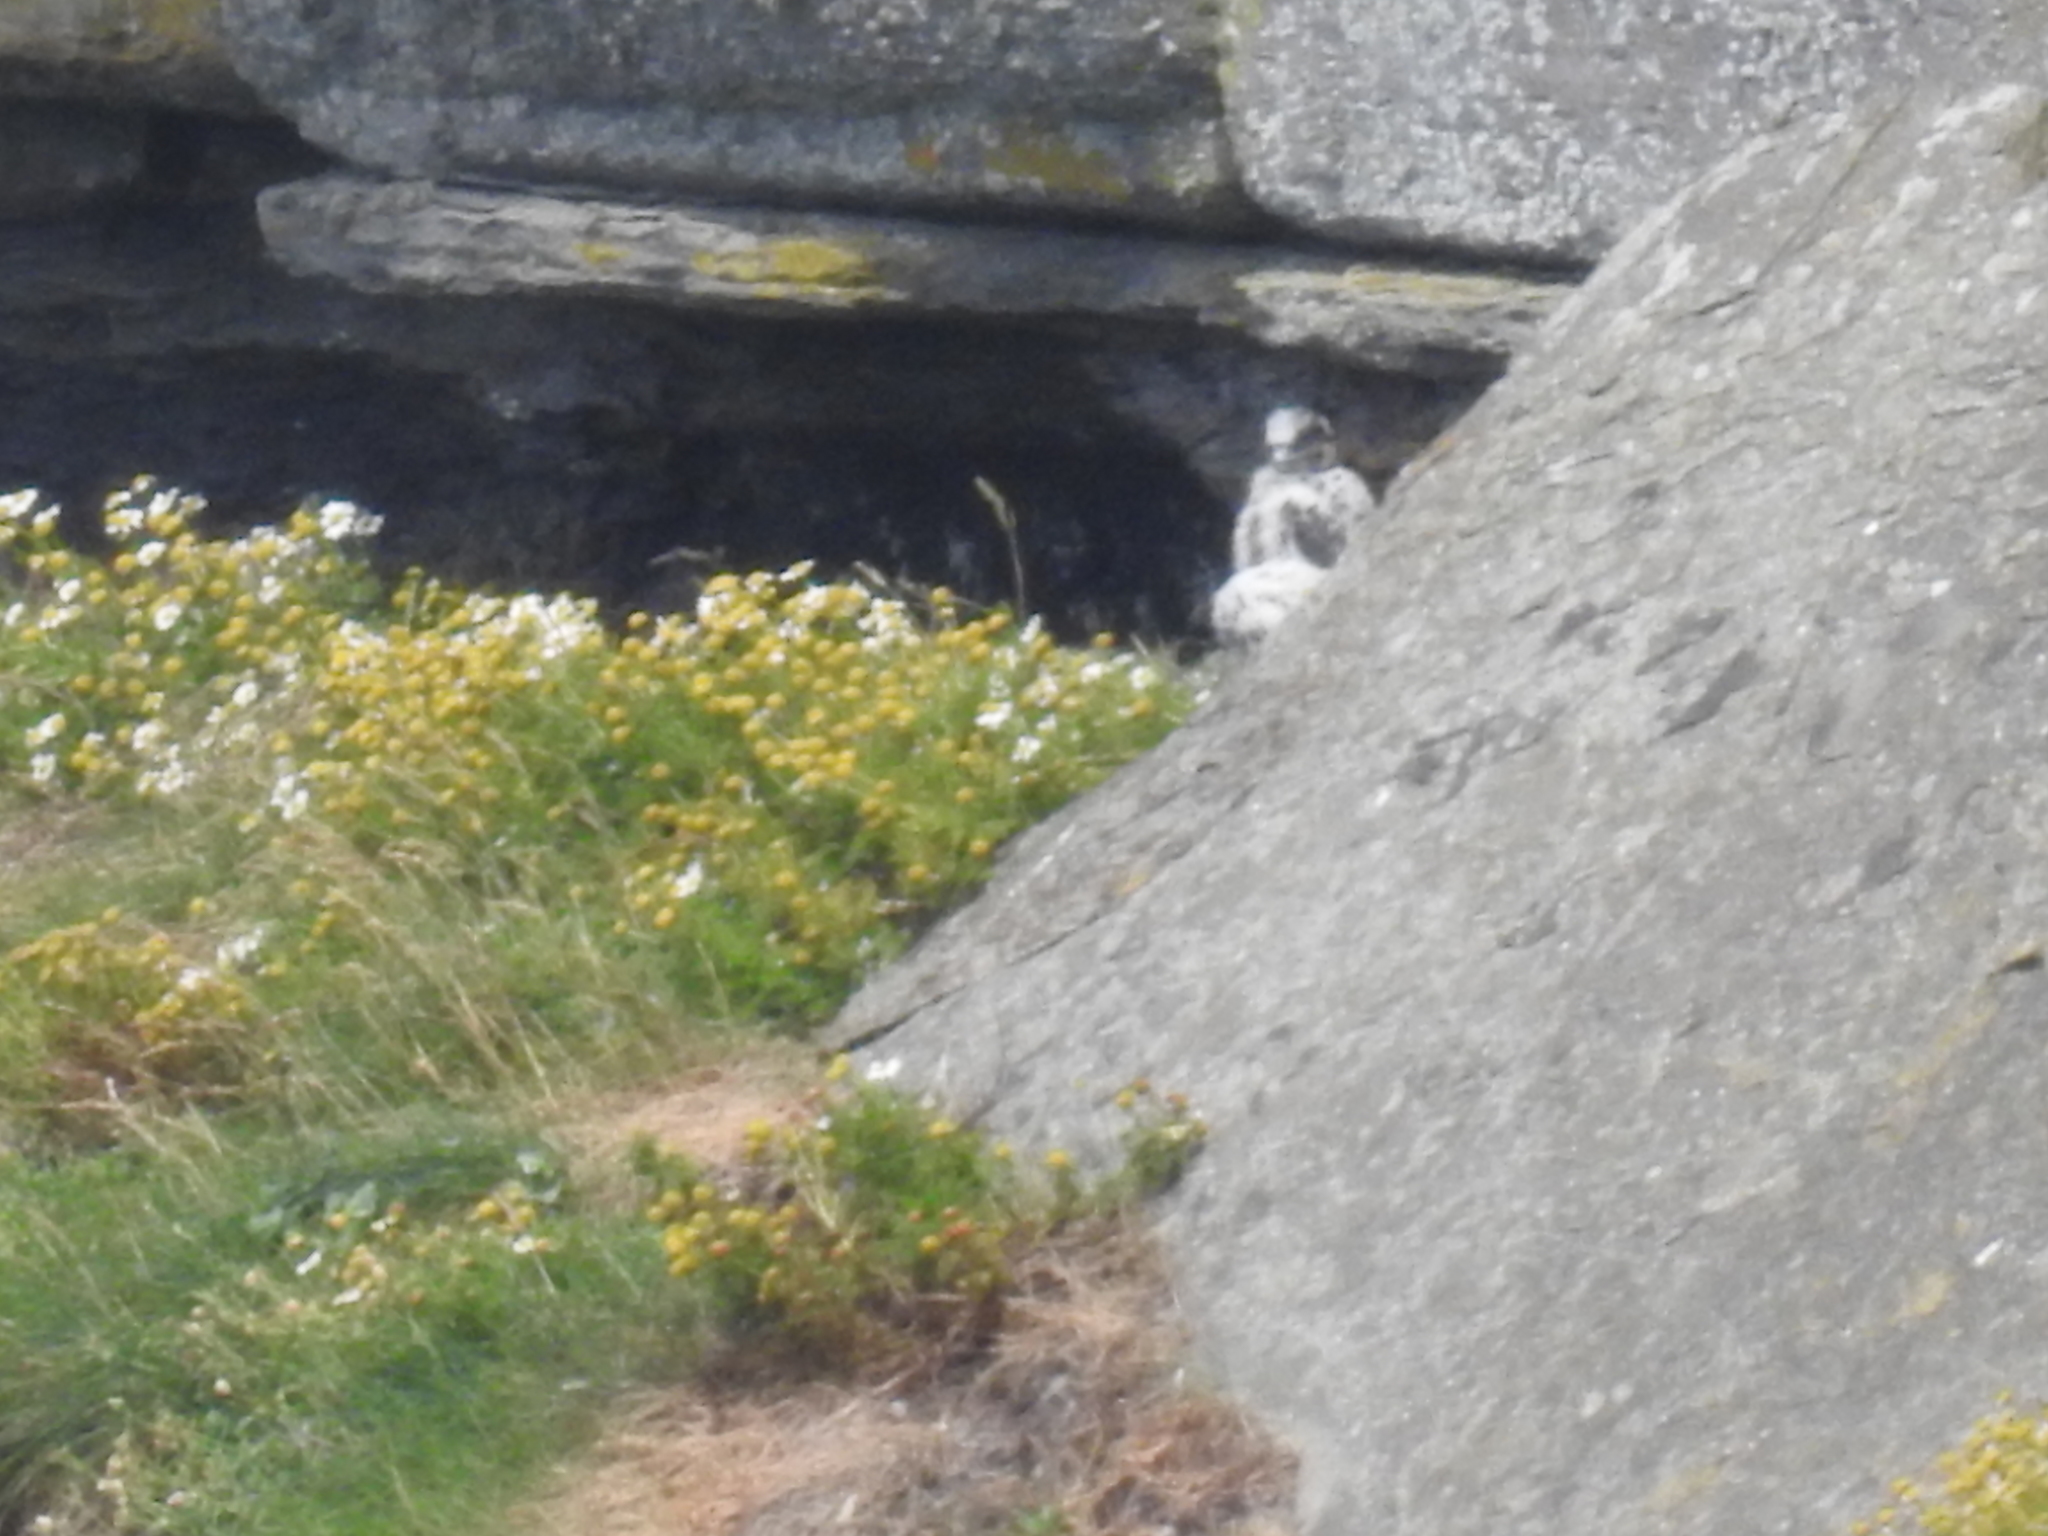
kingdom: Animalia
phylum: Chordata
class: Aves
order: Falconiformes
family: Falconidae
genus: Falco
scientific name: Falco peregrinus
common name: Peregrine falcon
